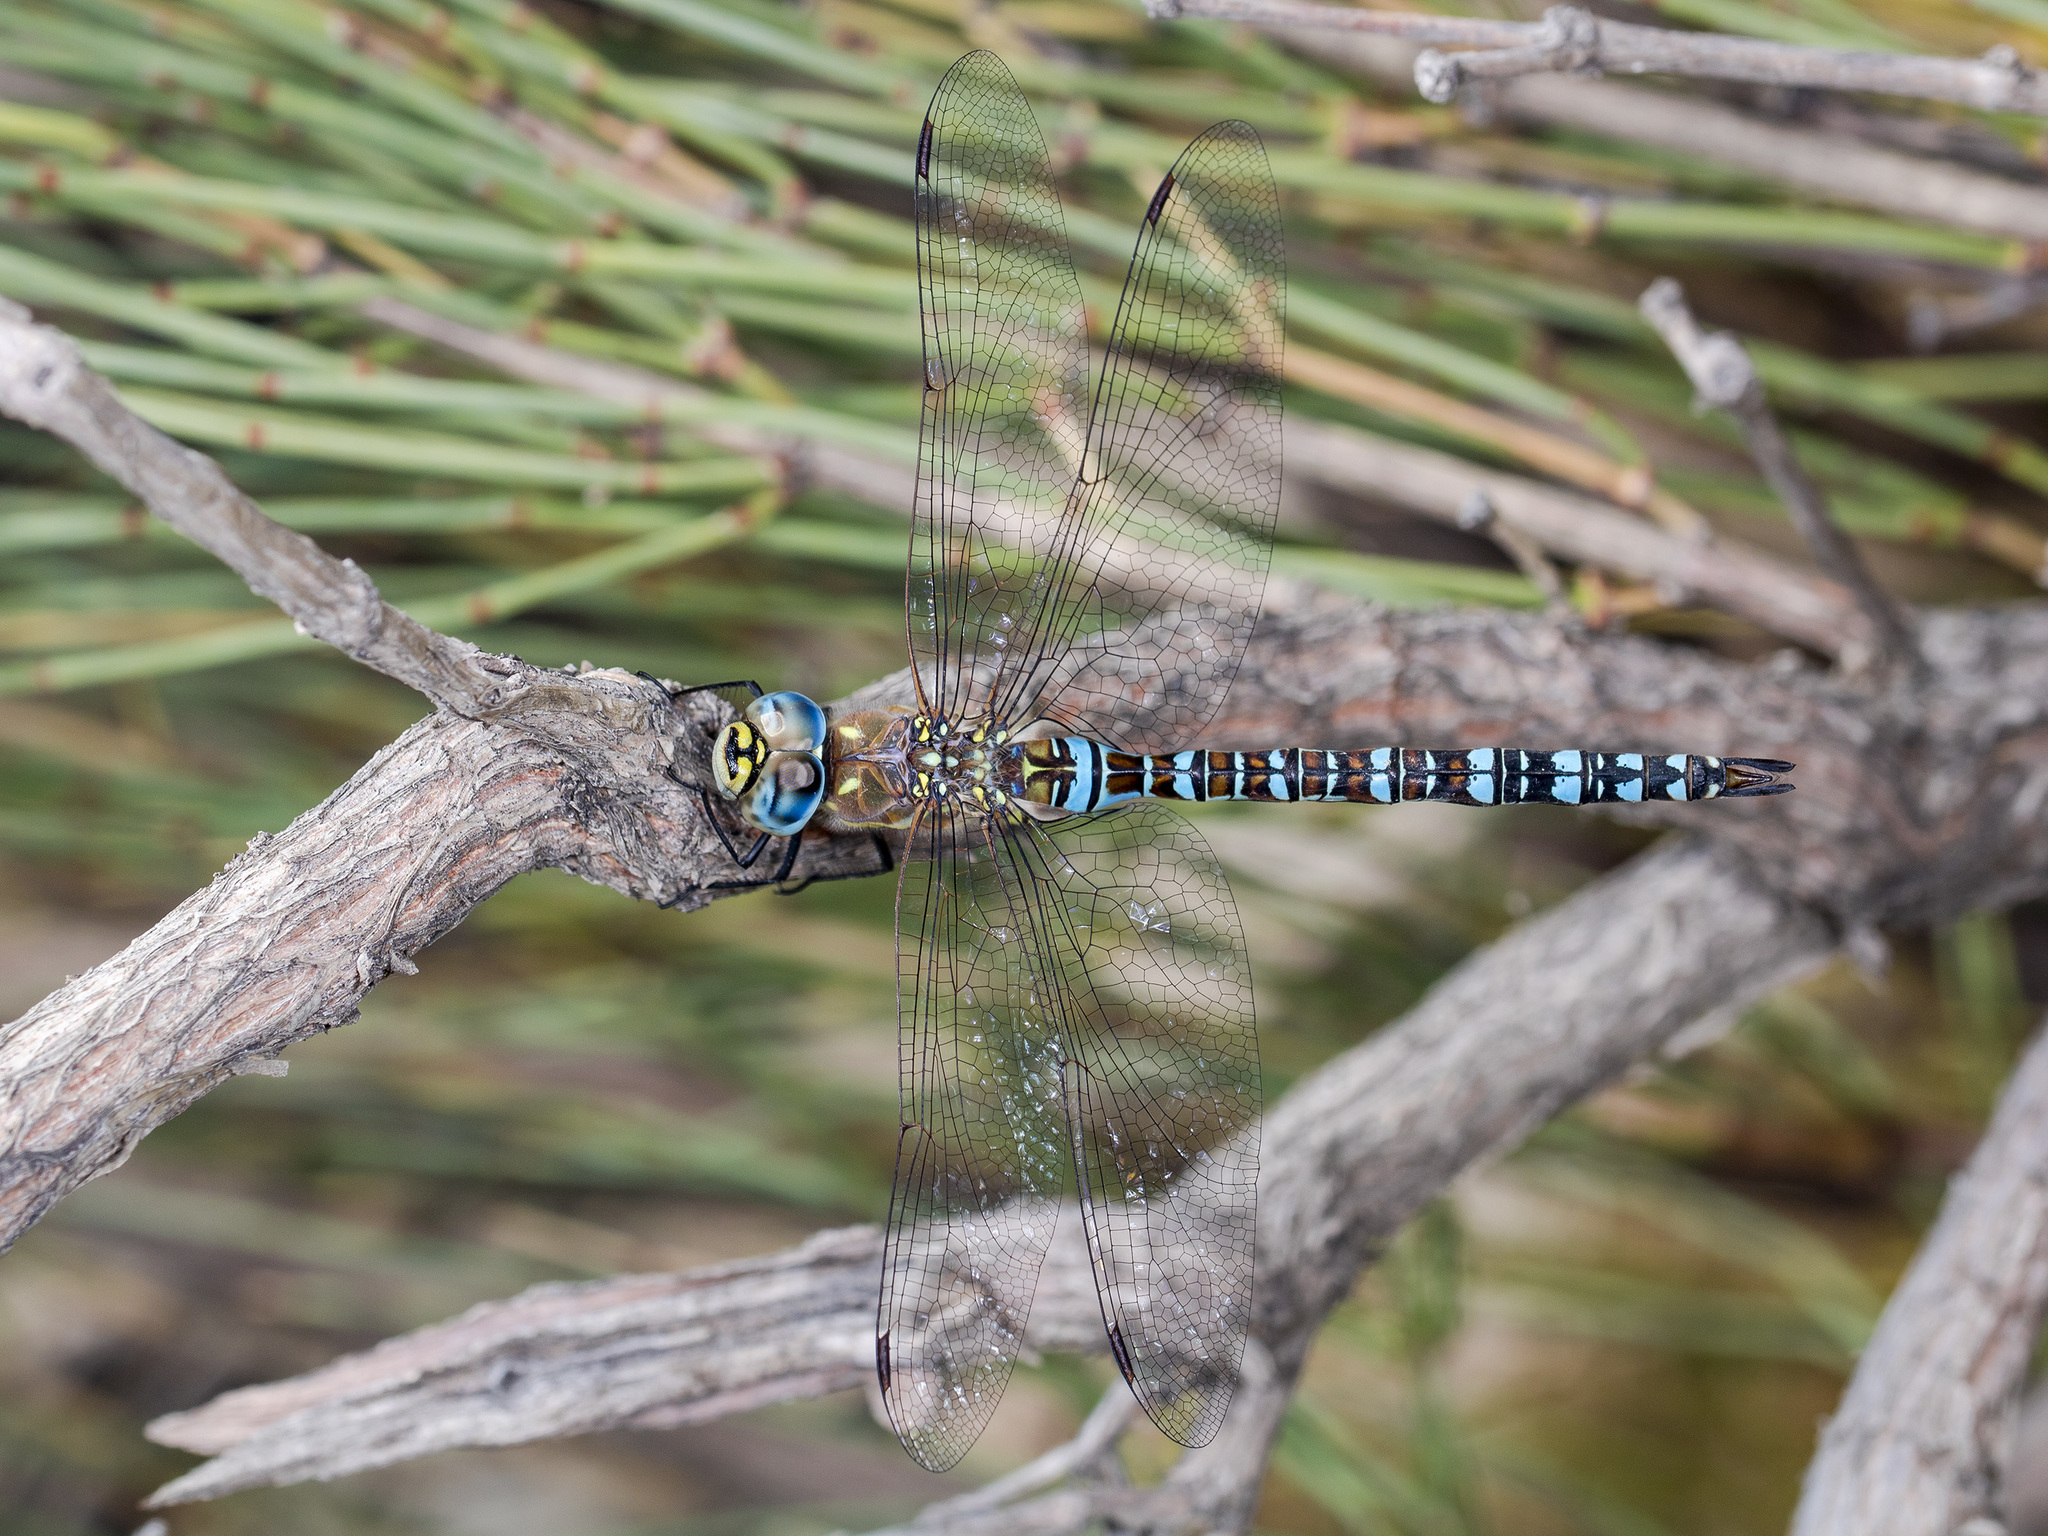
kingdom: Animalia
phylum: Arthropoda
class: Insecta
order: Odonata
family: Aeshnidae
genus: Aeshna
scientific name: Aeshna mixta
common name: Migrant hawker
